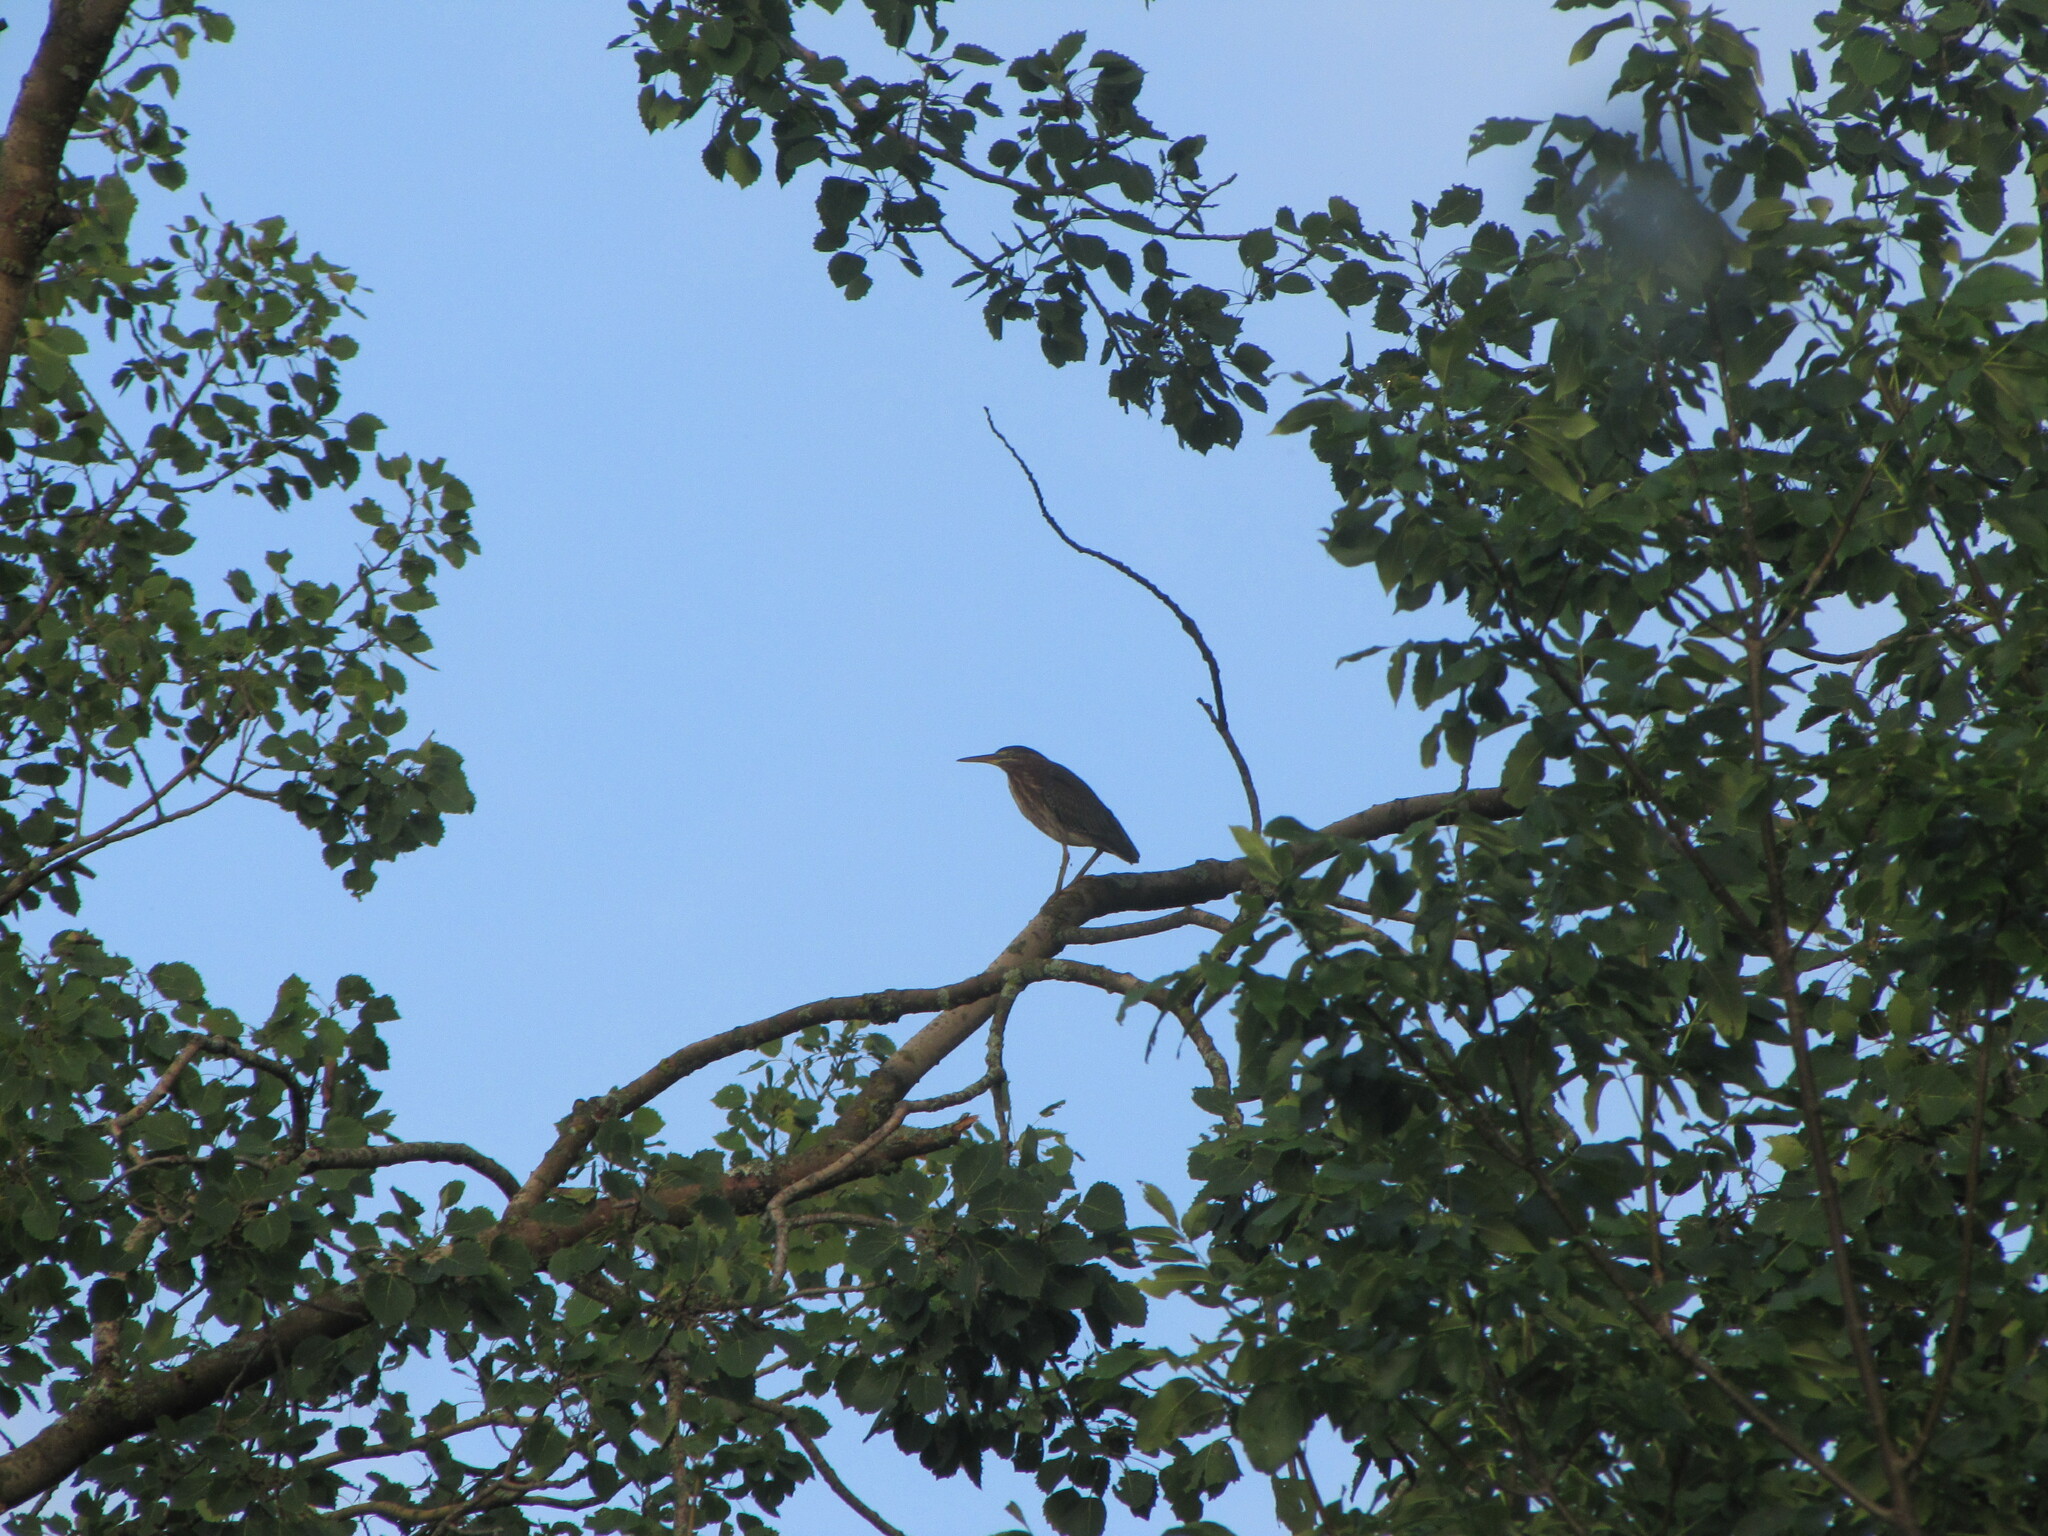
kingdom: Animalia
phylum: Chordata
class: Aves
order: Pelecaniformes
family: Ardeidae
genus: Butorides
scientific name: Butorides virescens
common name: Green heron
